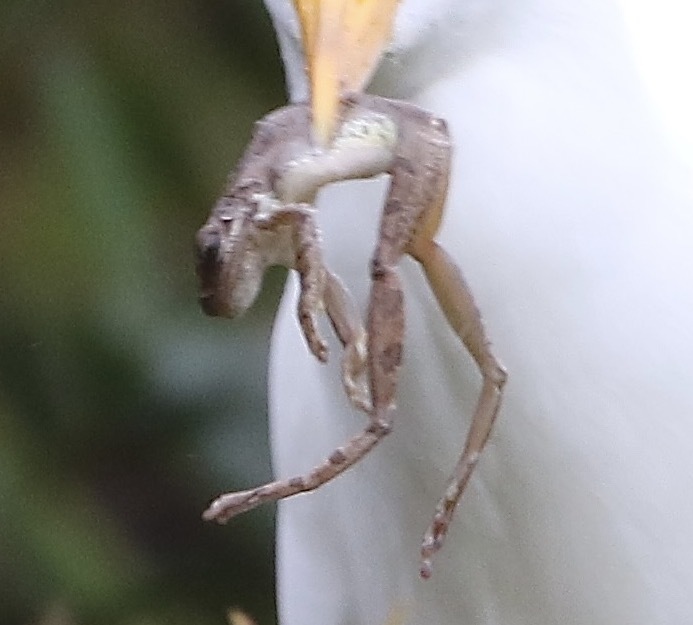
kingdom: Animalia
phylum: Chordata
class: Amphibia
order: Anura
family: Hylidae
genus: Osteopilus
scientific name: Osteopilus septentrionalis
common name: Cuban treefrog
